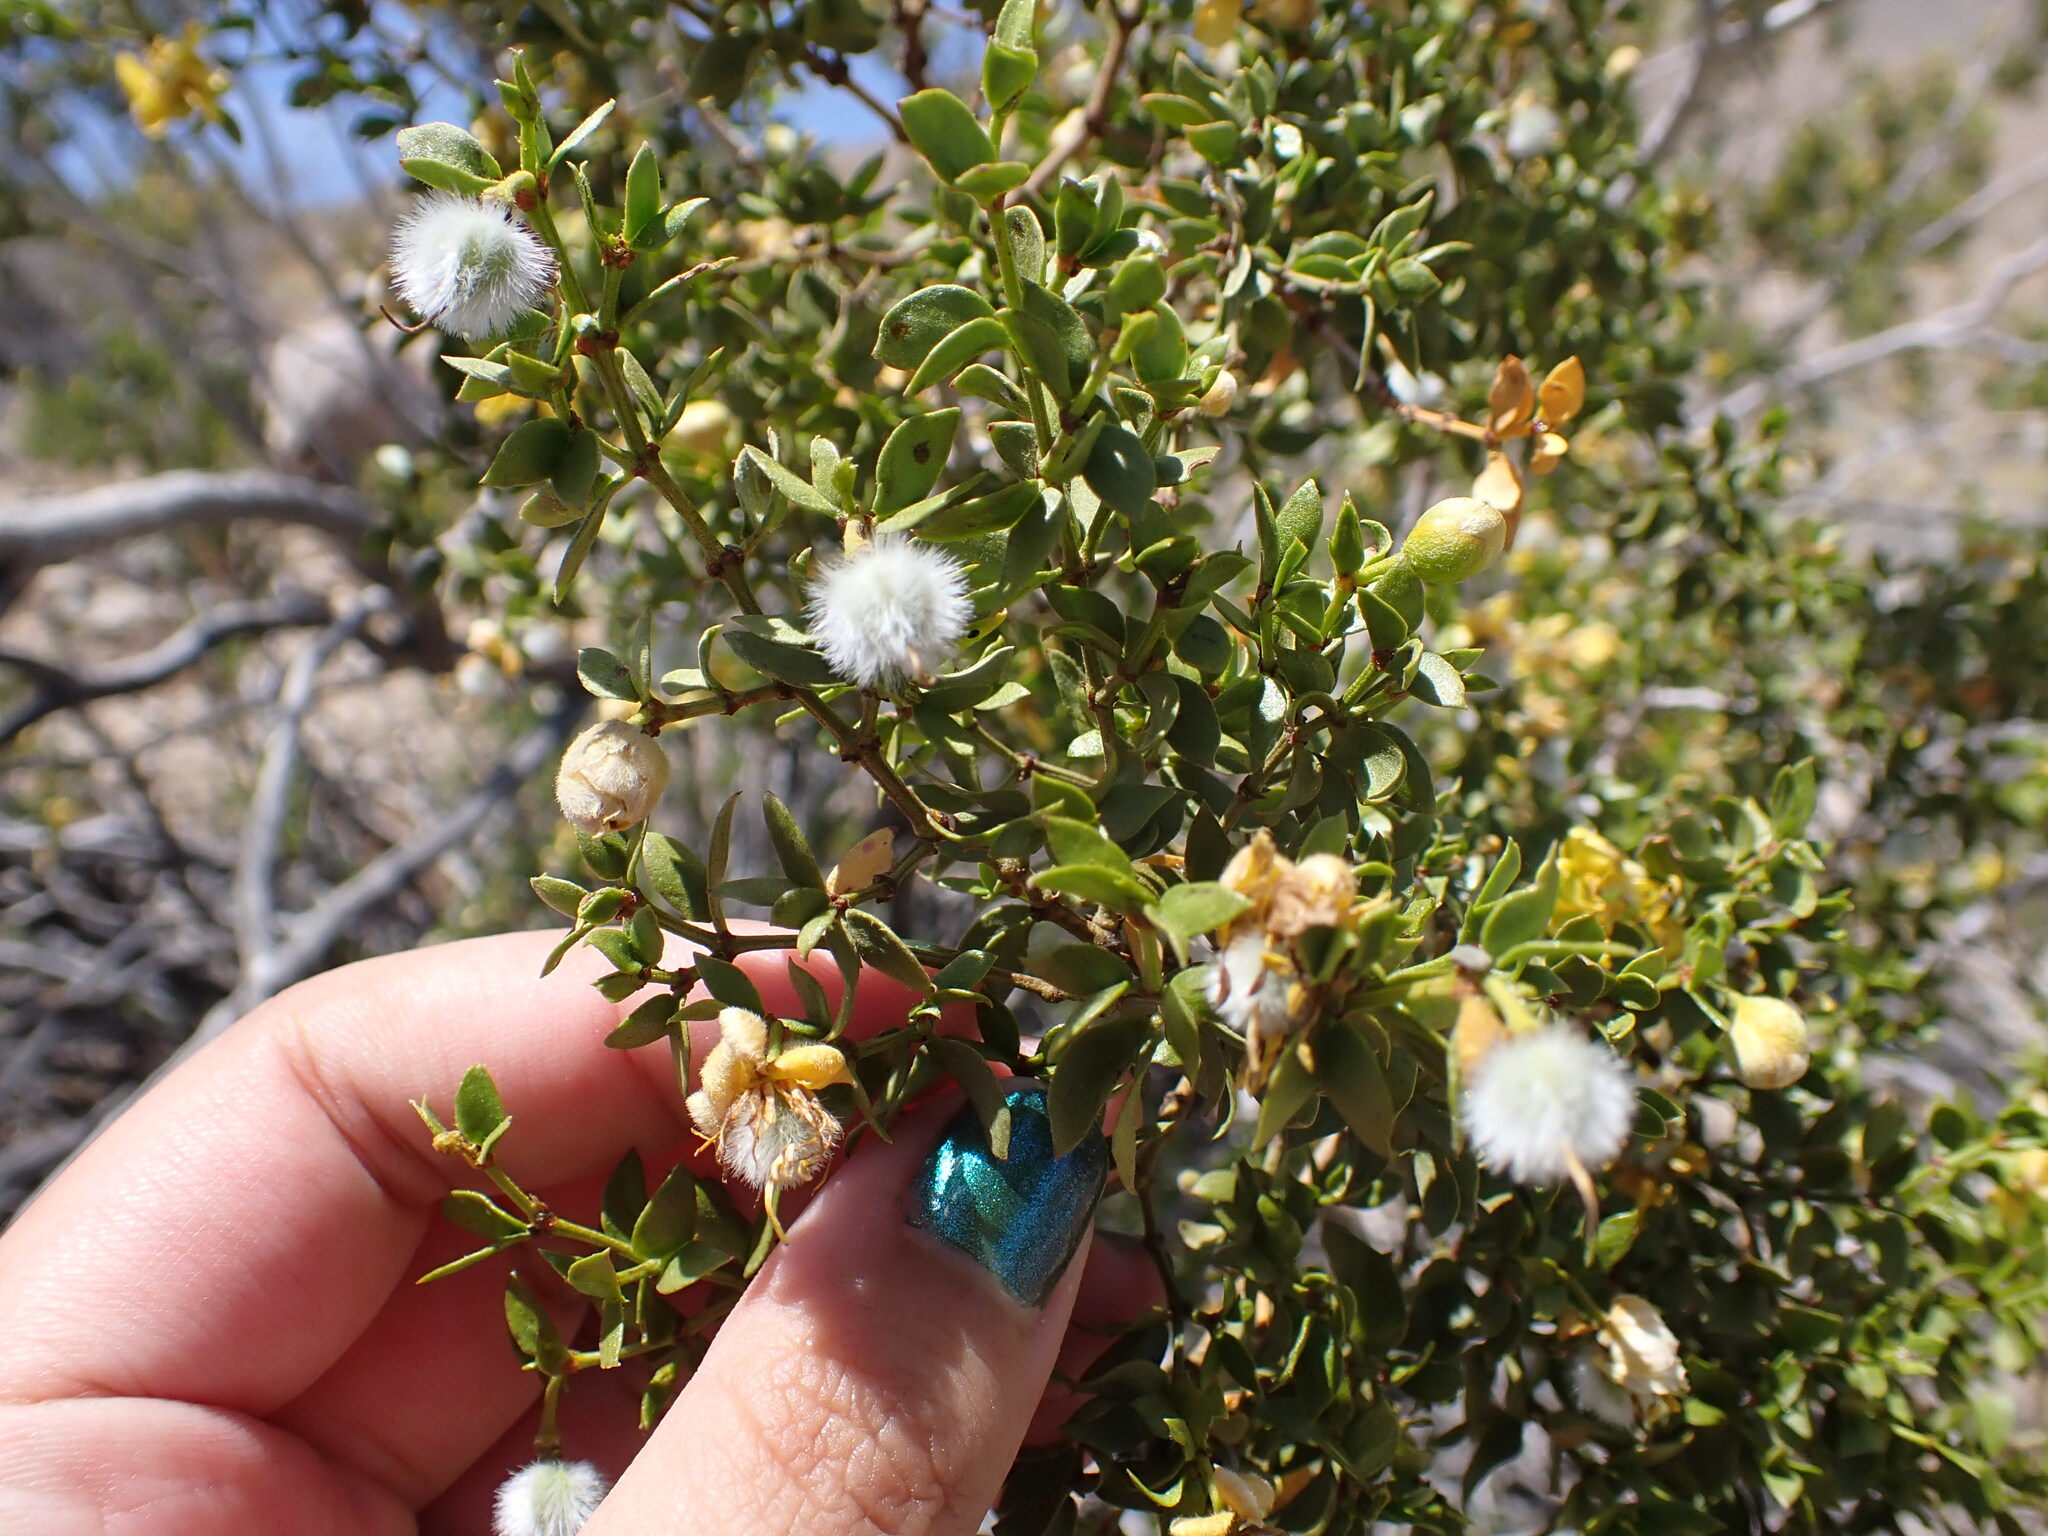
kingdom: Plantae
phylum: Tracheophyta
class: Magnoliopsida
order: Zygophyllales
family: Zygophyllaceae
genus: Larrea
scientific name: Larrea tridentata
